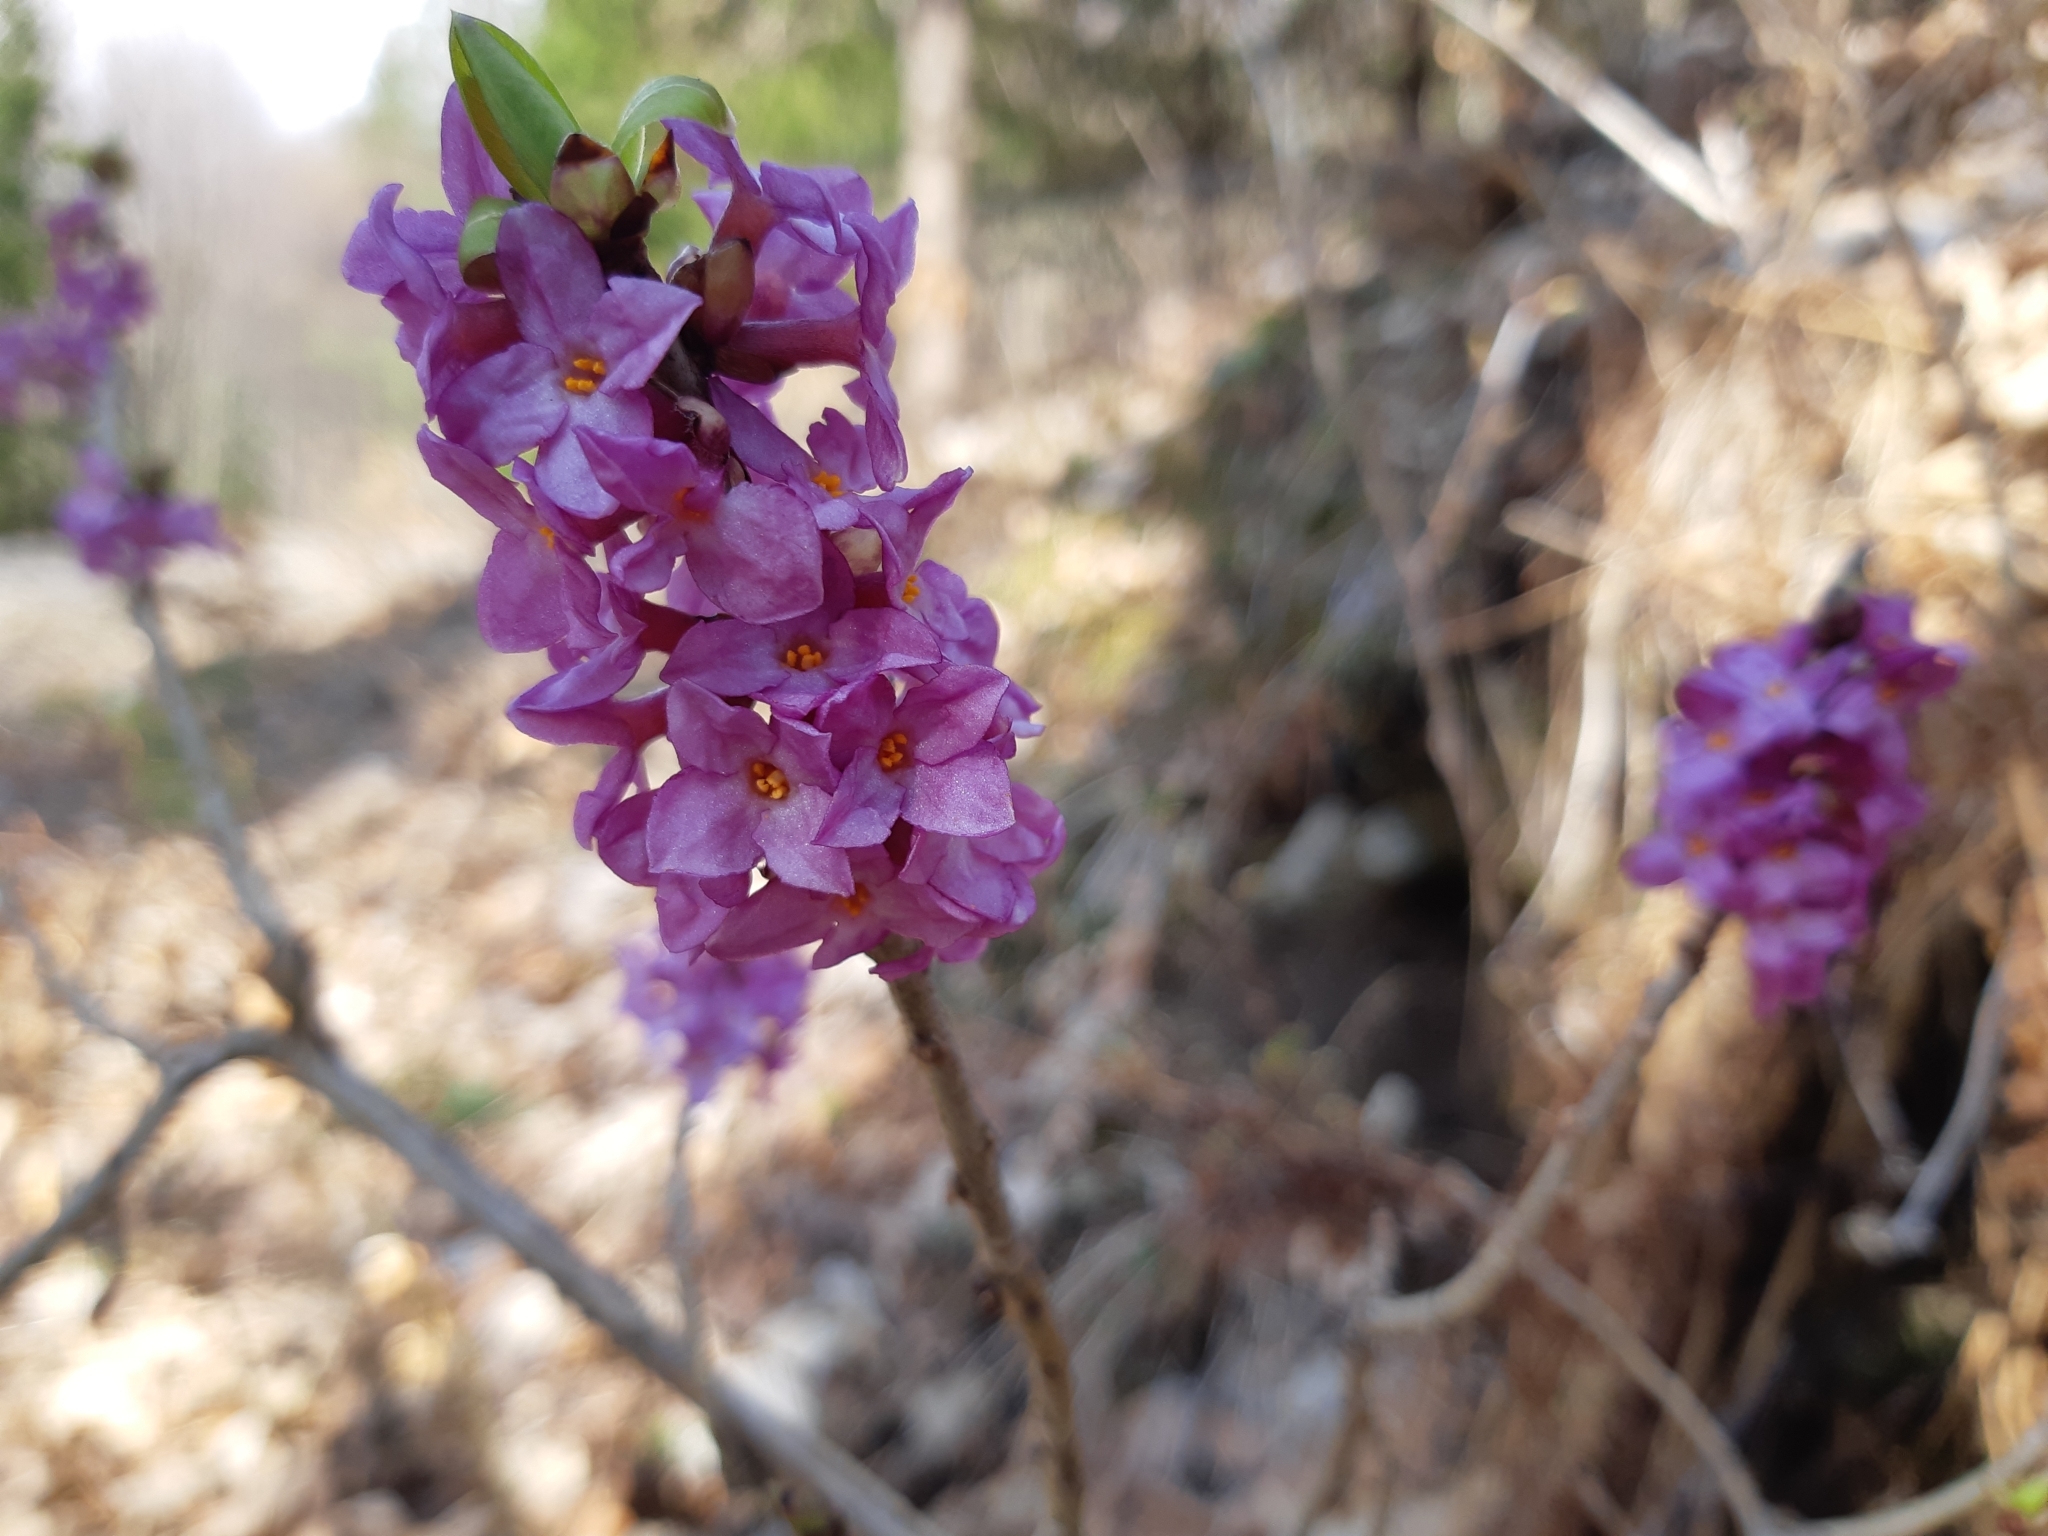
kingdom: Plantae
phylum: Tracheophyta
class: Magnoliopsida
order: Malvales
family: Thymelaeaceae
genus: Daphne
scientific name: Daphne mezereum
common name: Mezereon
